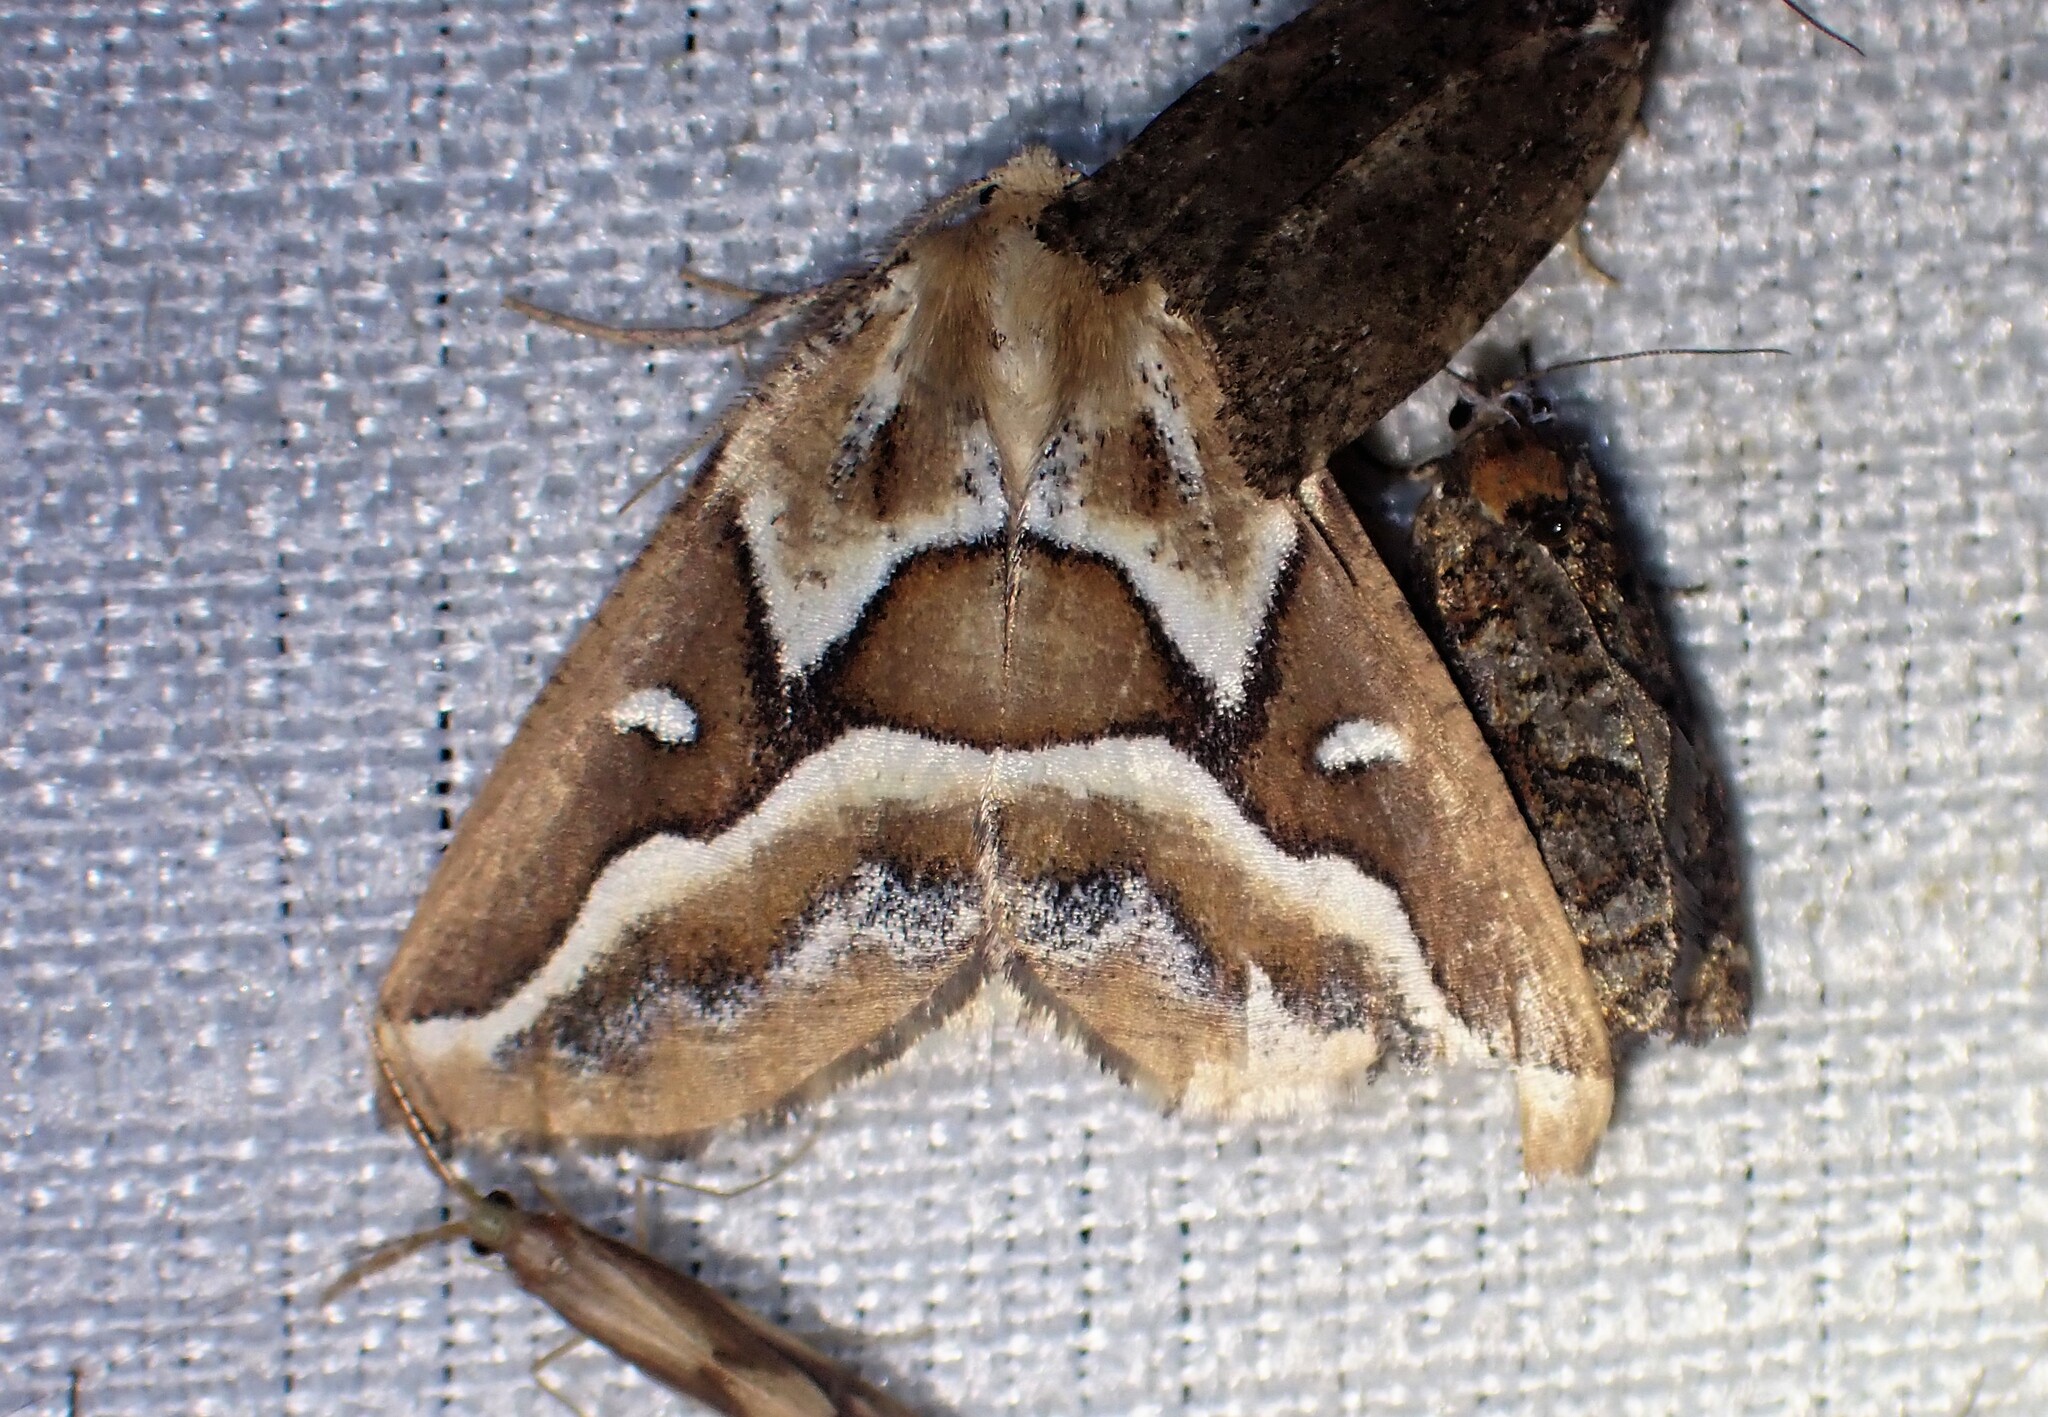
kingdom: Animalia
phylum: Arthropoda
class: Insecta
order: Lepidoptera
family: Geometridae
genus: Caripeta
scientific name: Caripeta angustiorata
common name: Brown pine looper
